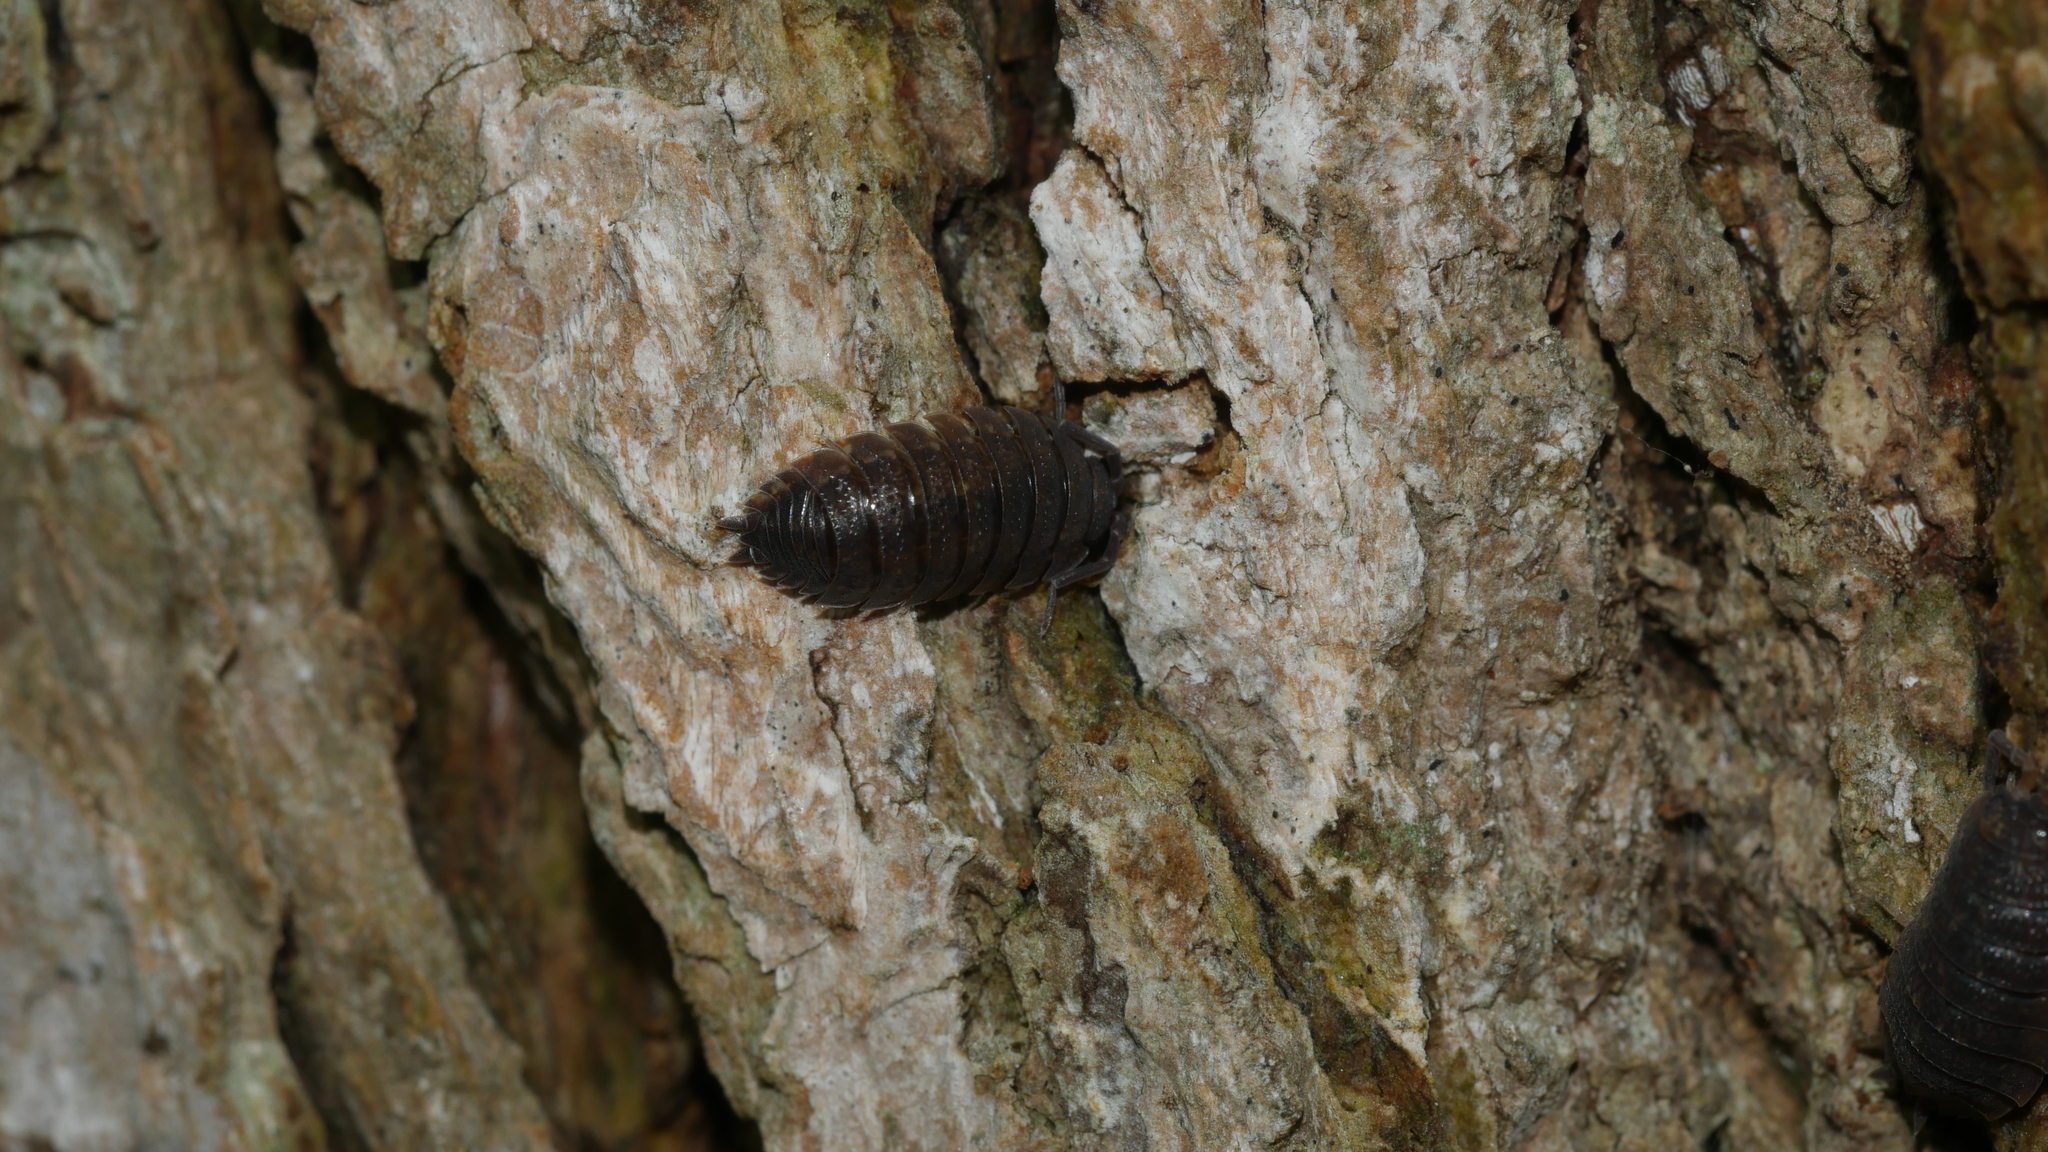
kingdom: Animalia
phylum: Arthropoda
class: Malacostraca
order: Isopoda
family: Porcellionidae
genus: Porcellio
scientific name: Porcellio scaber
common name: Common rough woodlouse
